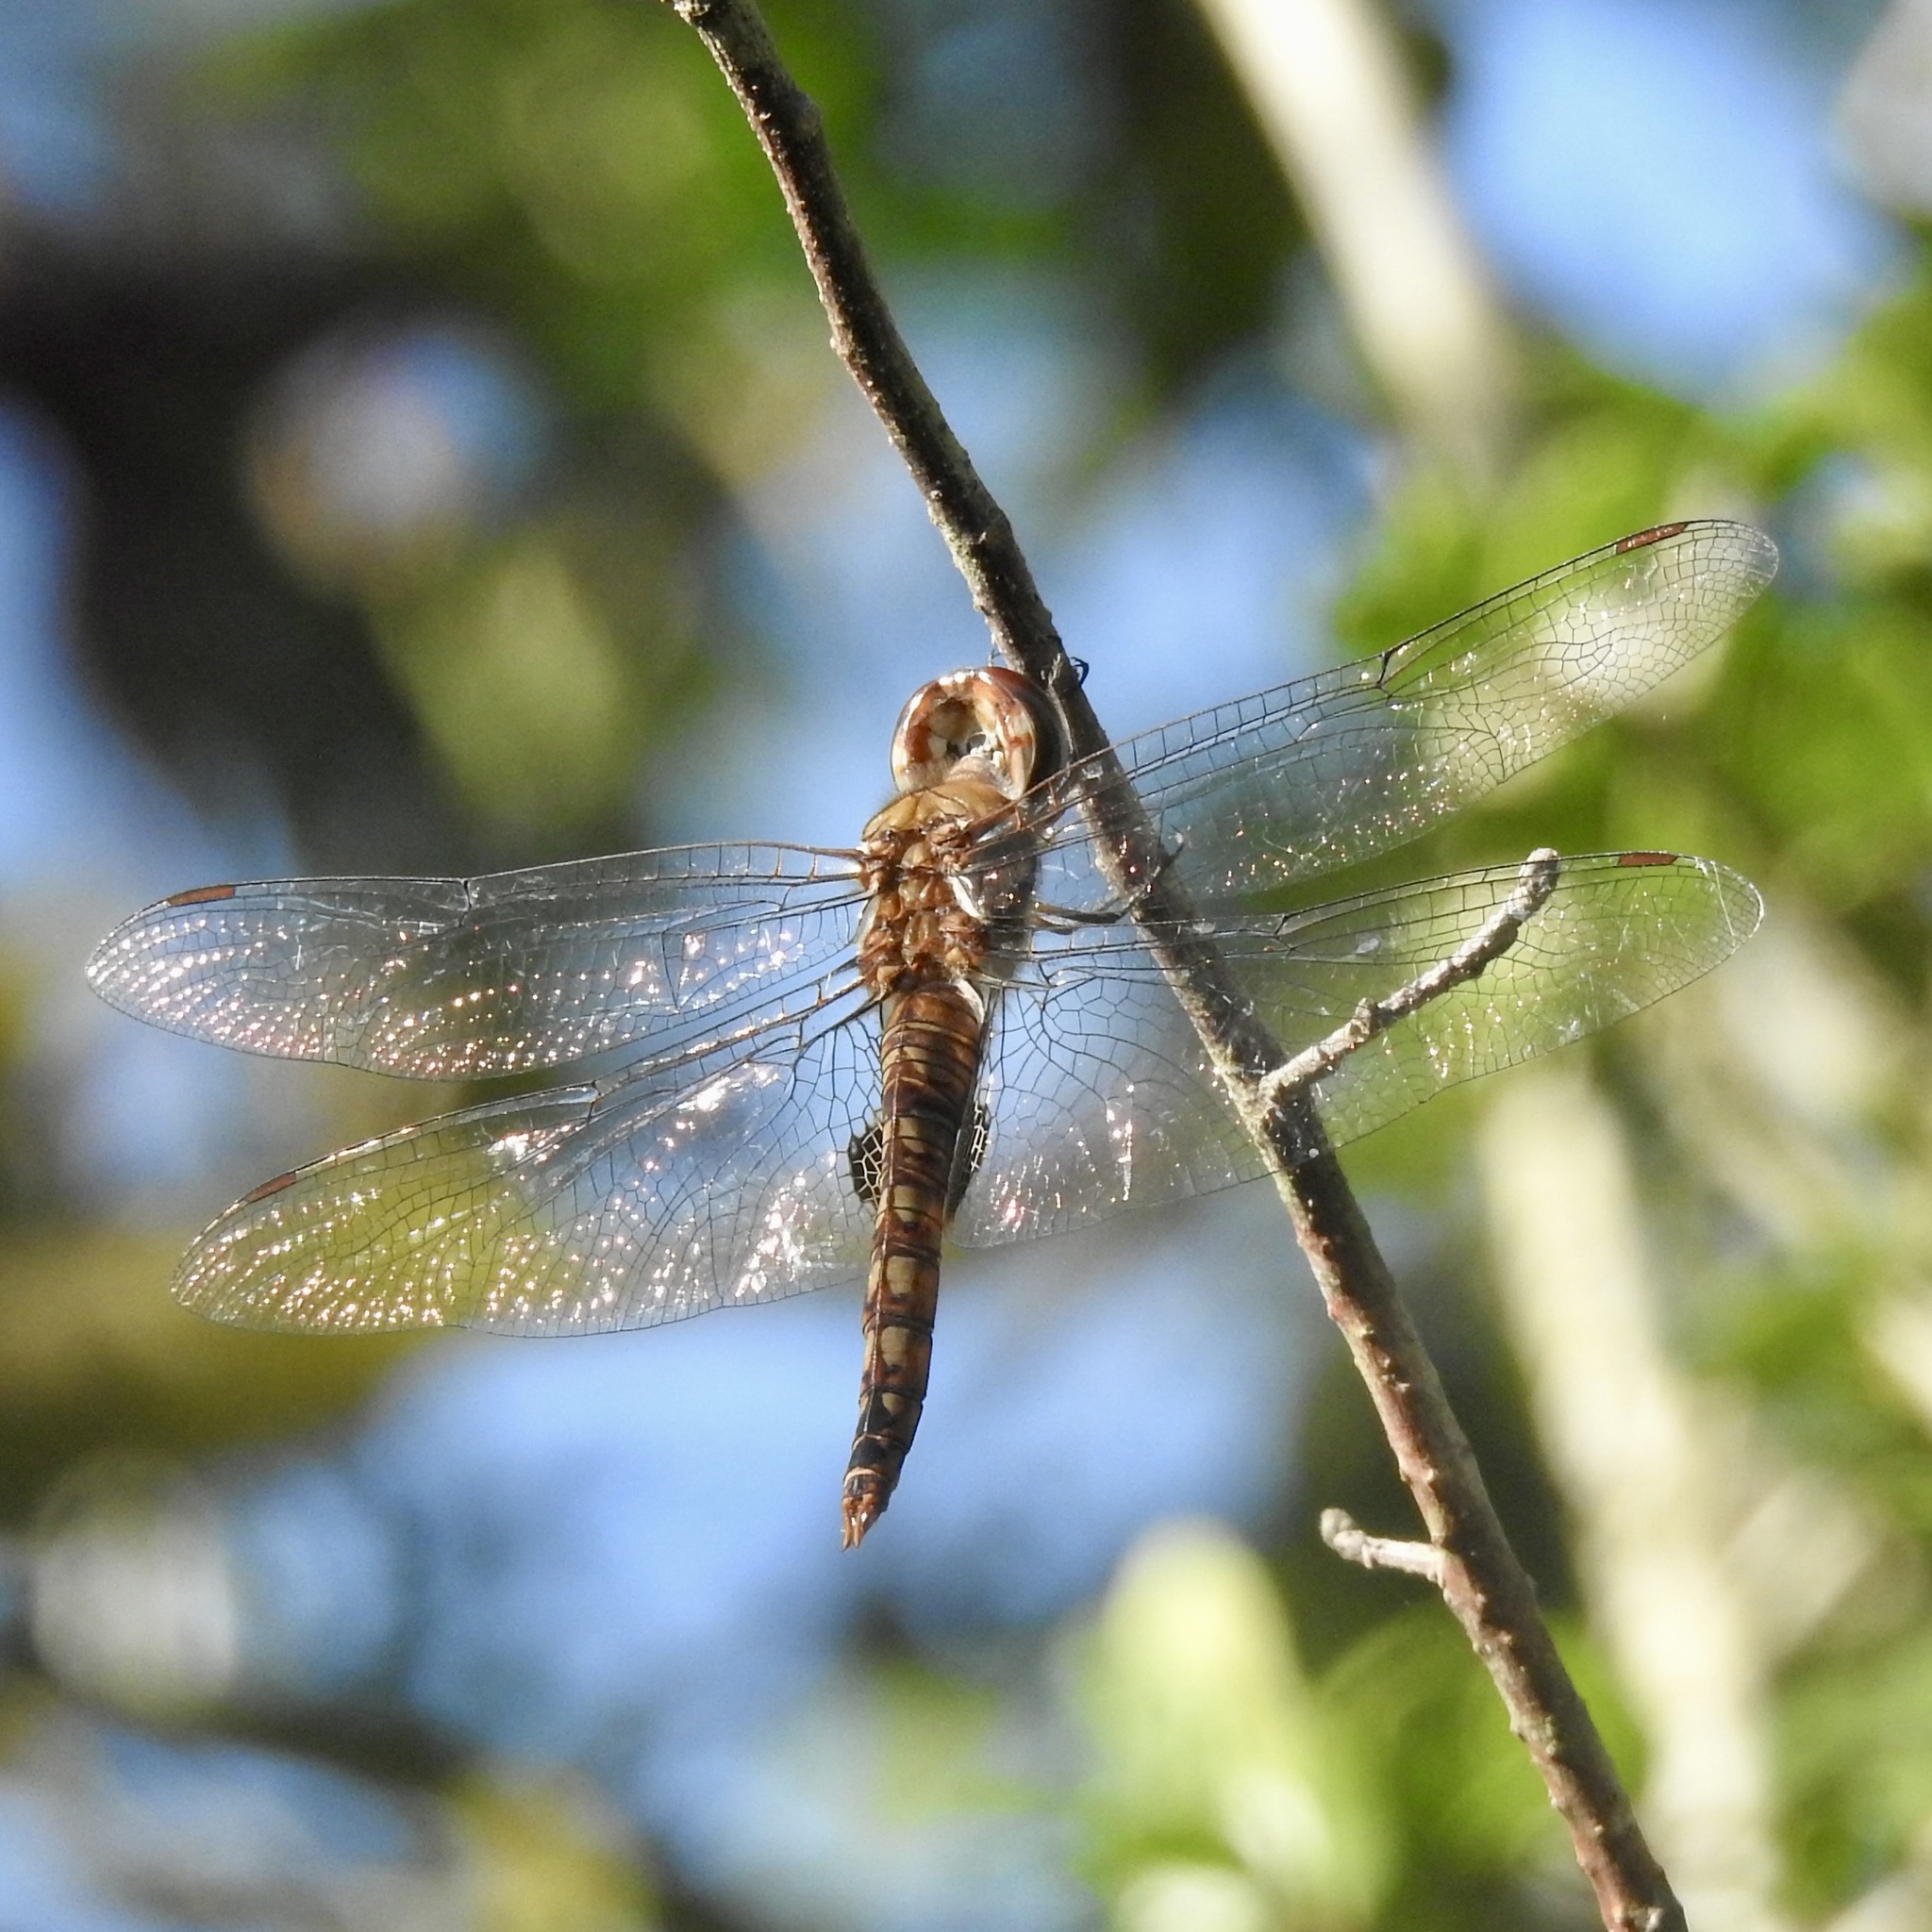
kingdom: Animalia
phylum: Arthropoda
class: Insecta
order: Odonata
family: Libellulidae
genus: Pantala
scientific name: Pantala hymenaea
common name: Spot-winged glider
